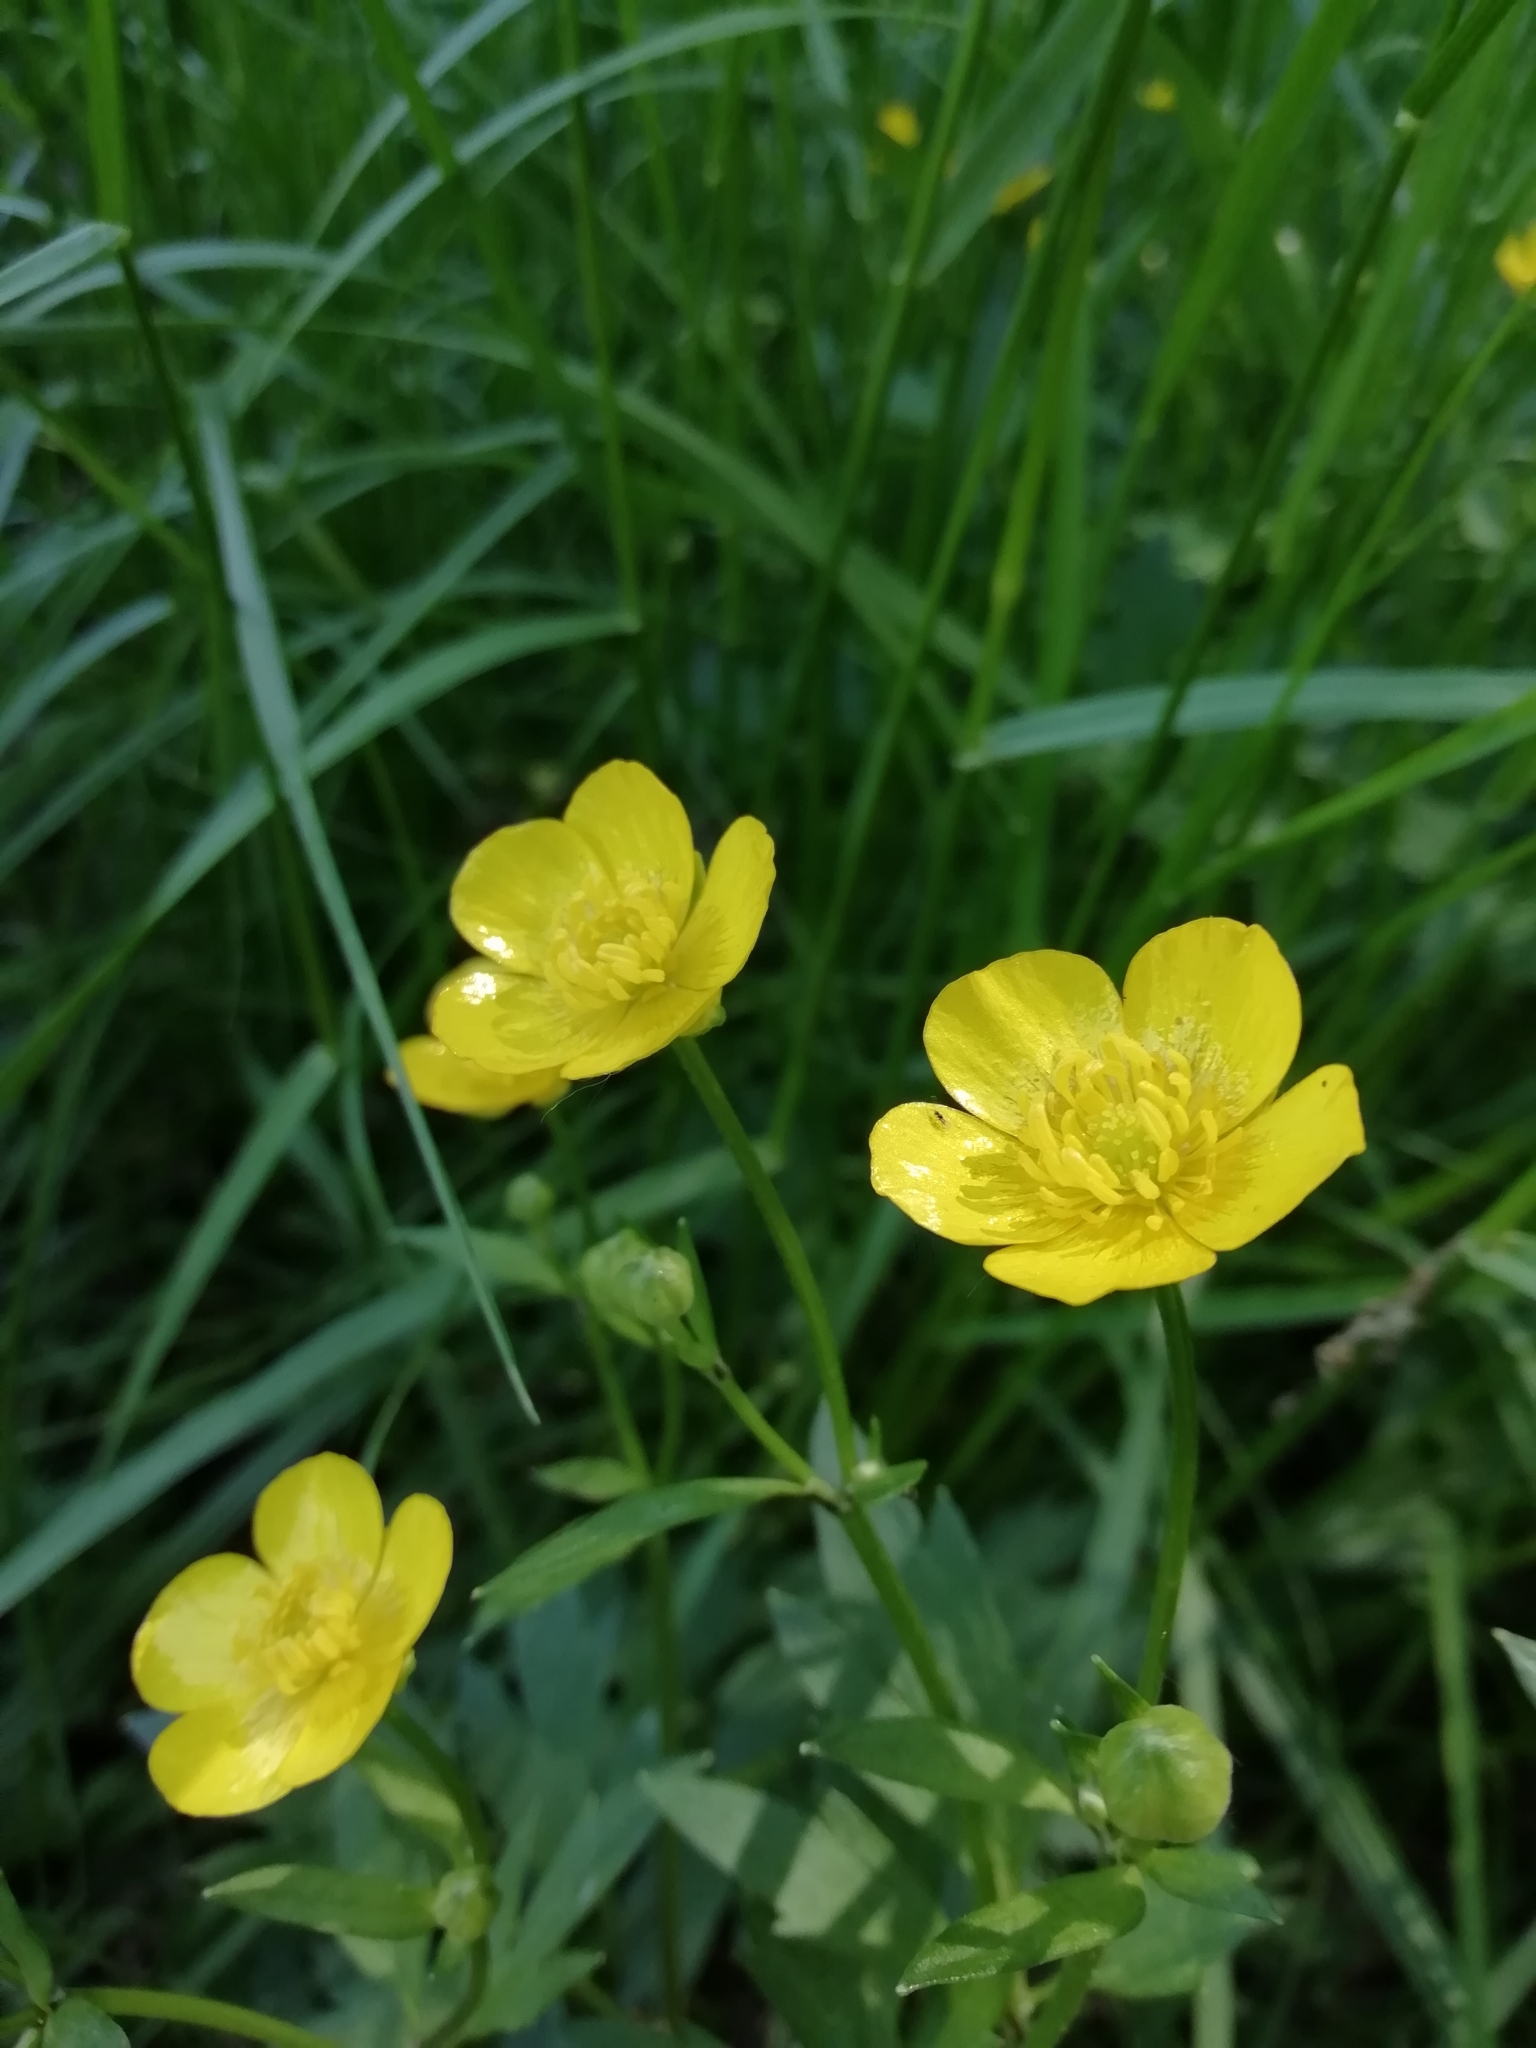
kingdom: Plantae
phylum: Tracheophyta
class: Magnoliopsida
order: Ranunculales
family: Ranunculaceae
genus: Ranunculus
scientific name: Ranunculus repens
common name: Creeping buttercup
